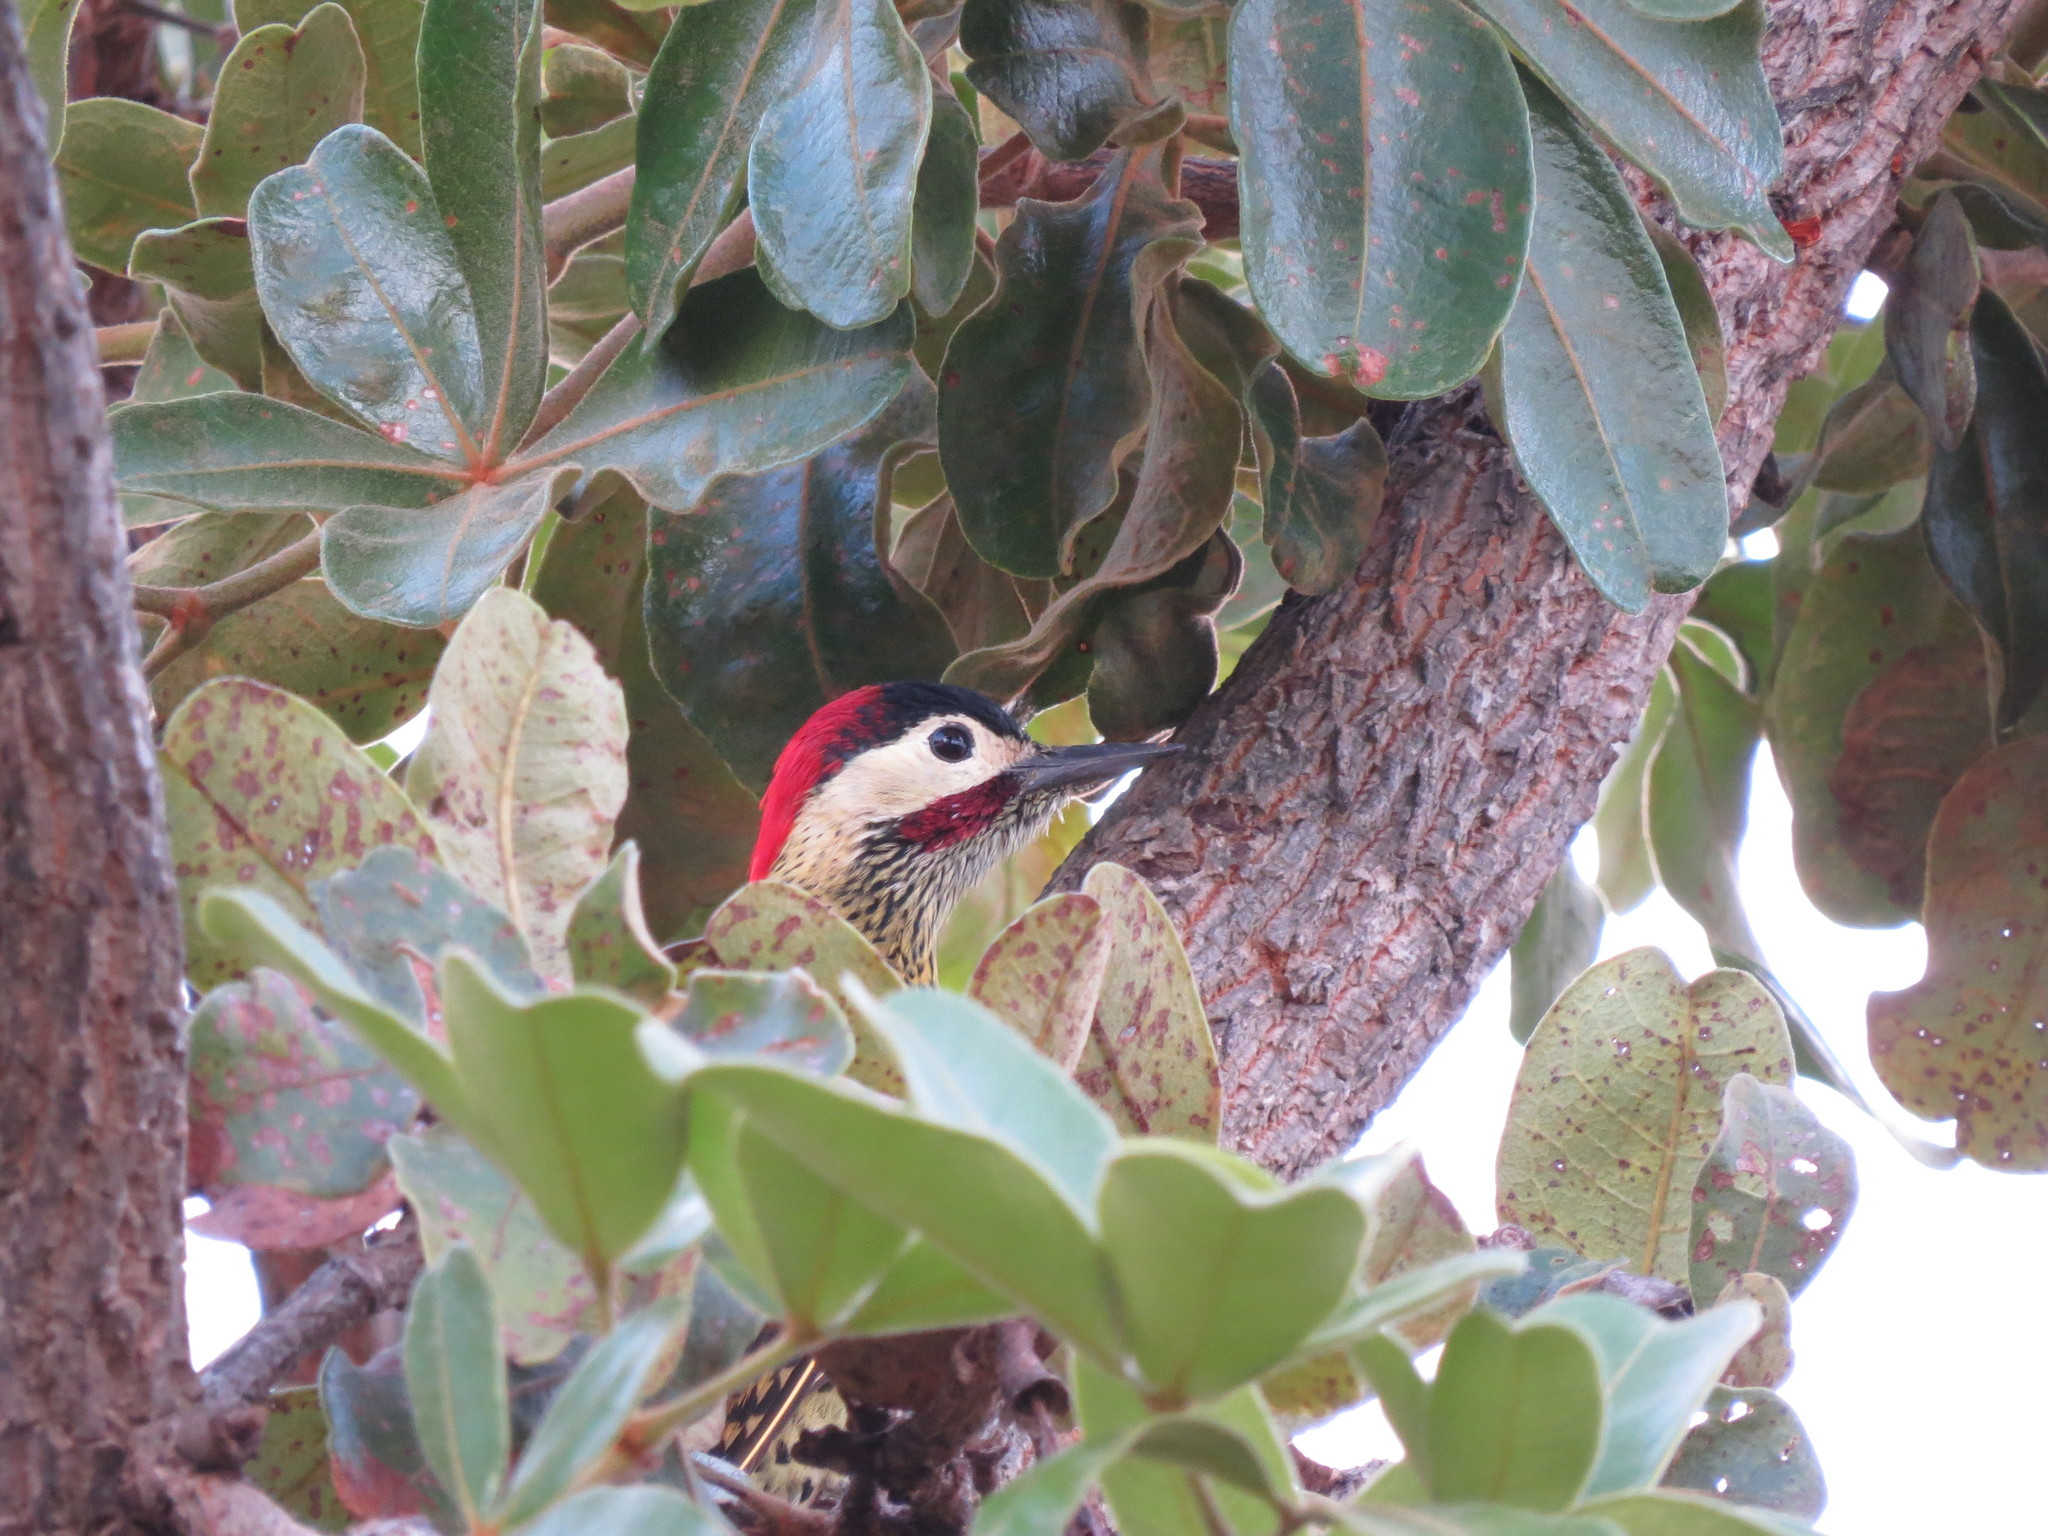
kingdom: Animalia
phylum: Chordata
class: Aves
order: Piciformes
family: Picidae
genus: Colaptes
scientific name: Colaptes melanochloros
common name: Green-barred woodpecker
